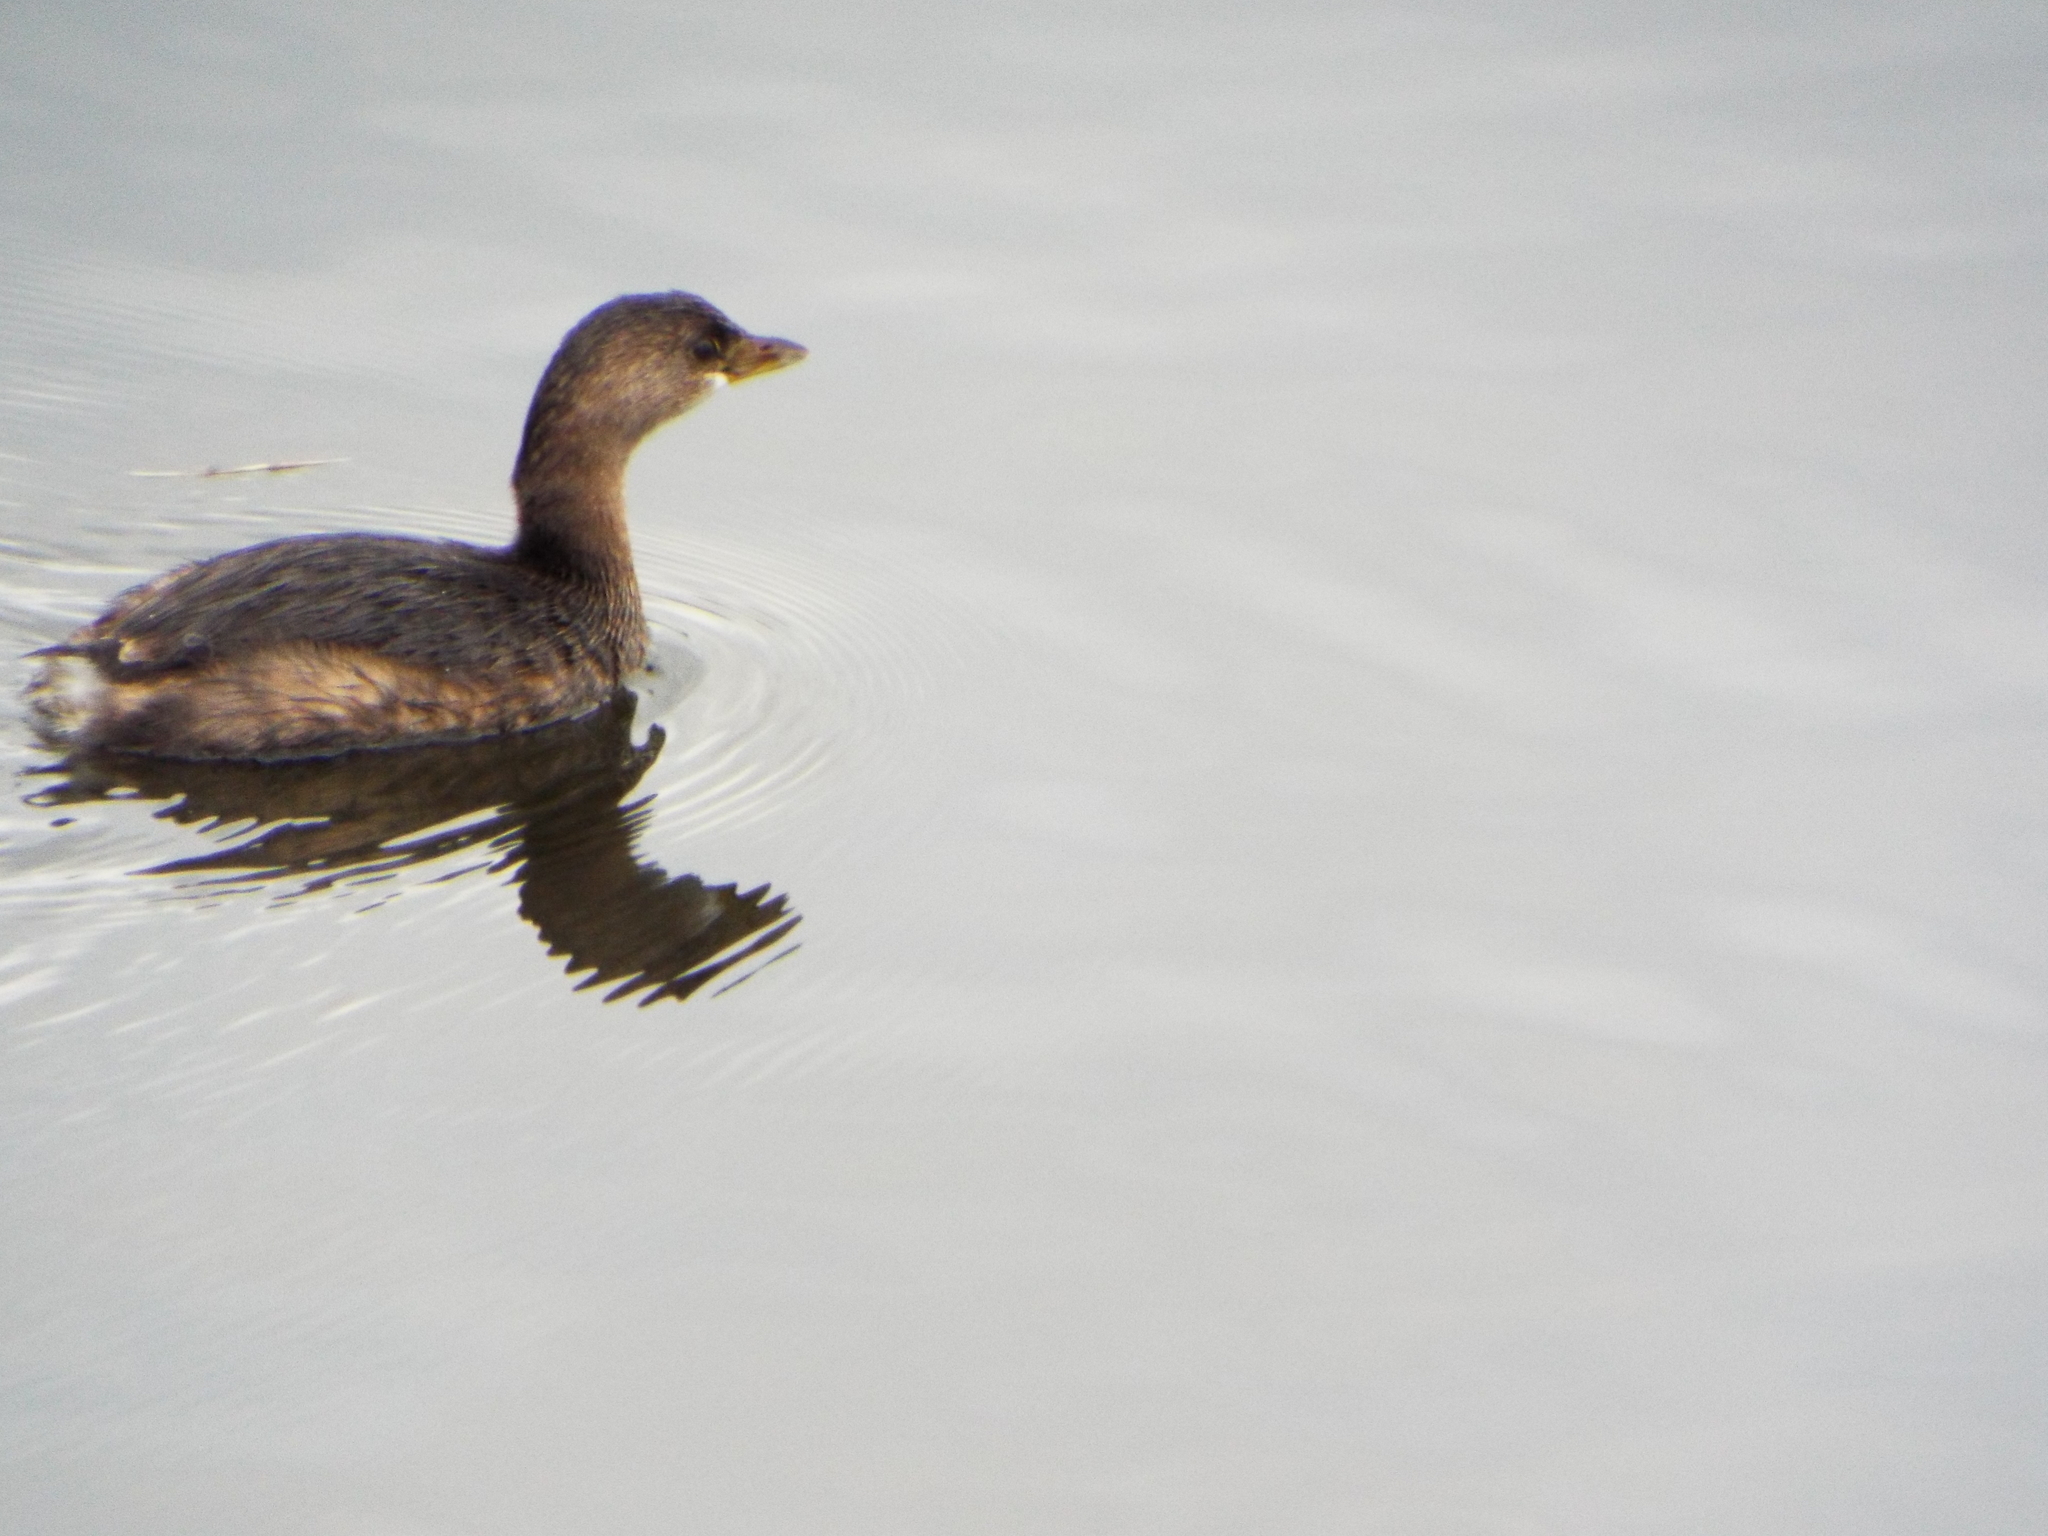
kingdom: Animalia
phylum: Chordata
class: Aves
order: Podicipediformes
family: Podicipedidae
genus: Podilymbus
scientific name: Podilymbus podiceps
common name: Pied-billed grebe
